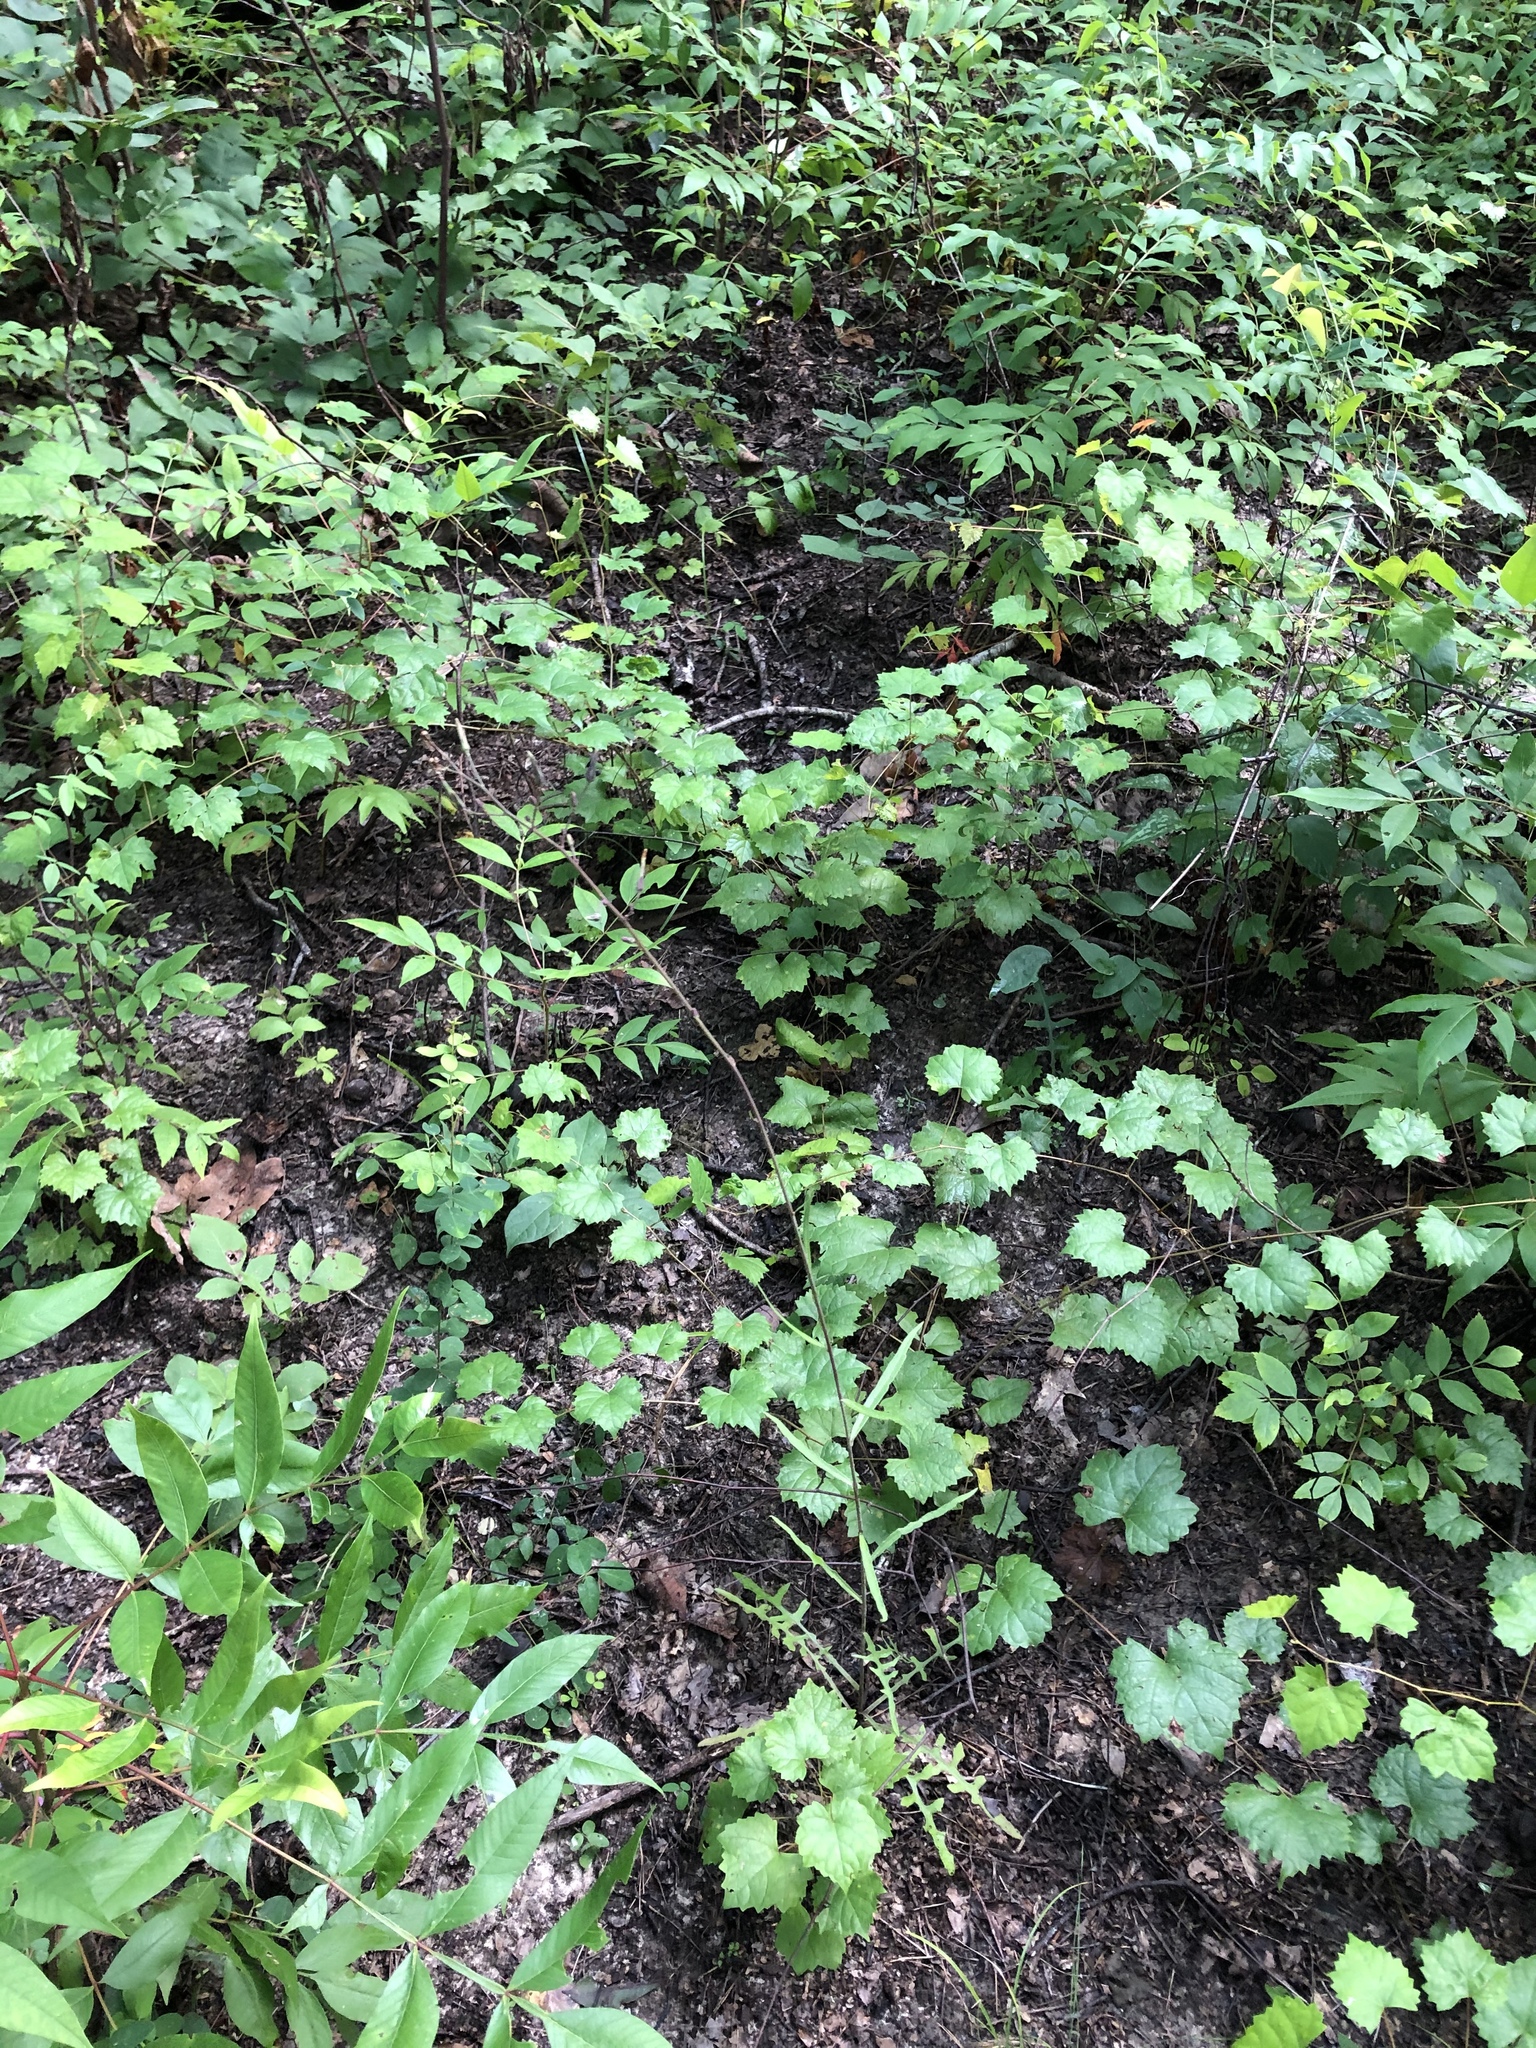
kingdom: Plantae
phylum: Tracheophyta
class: Magnoliopsida
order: Asterales
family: Asteraceae
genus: Lactuca
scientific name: Lactuca graminifolia
